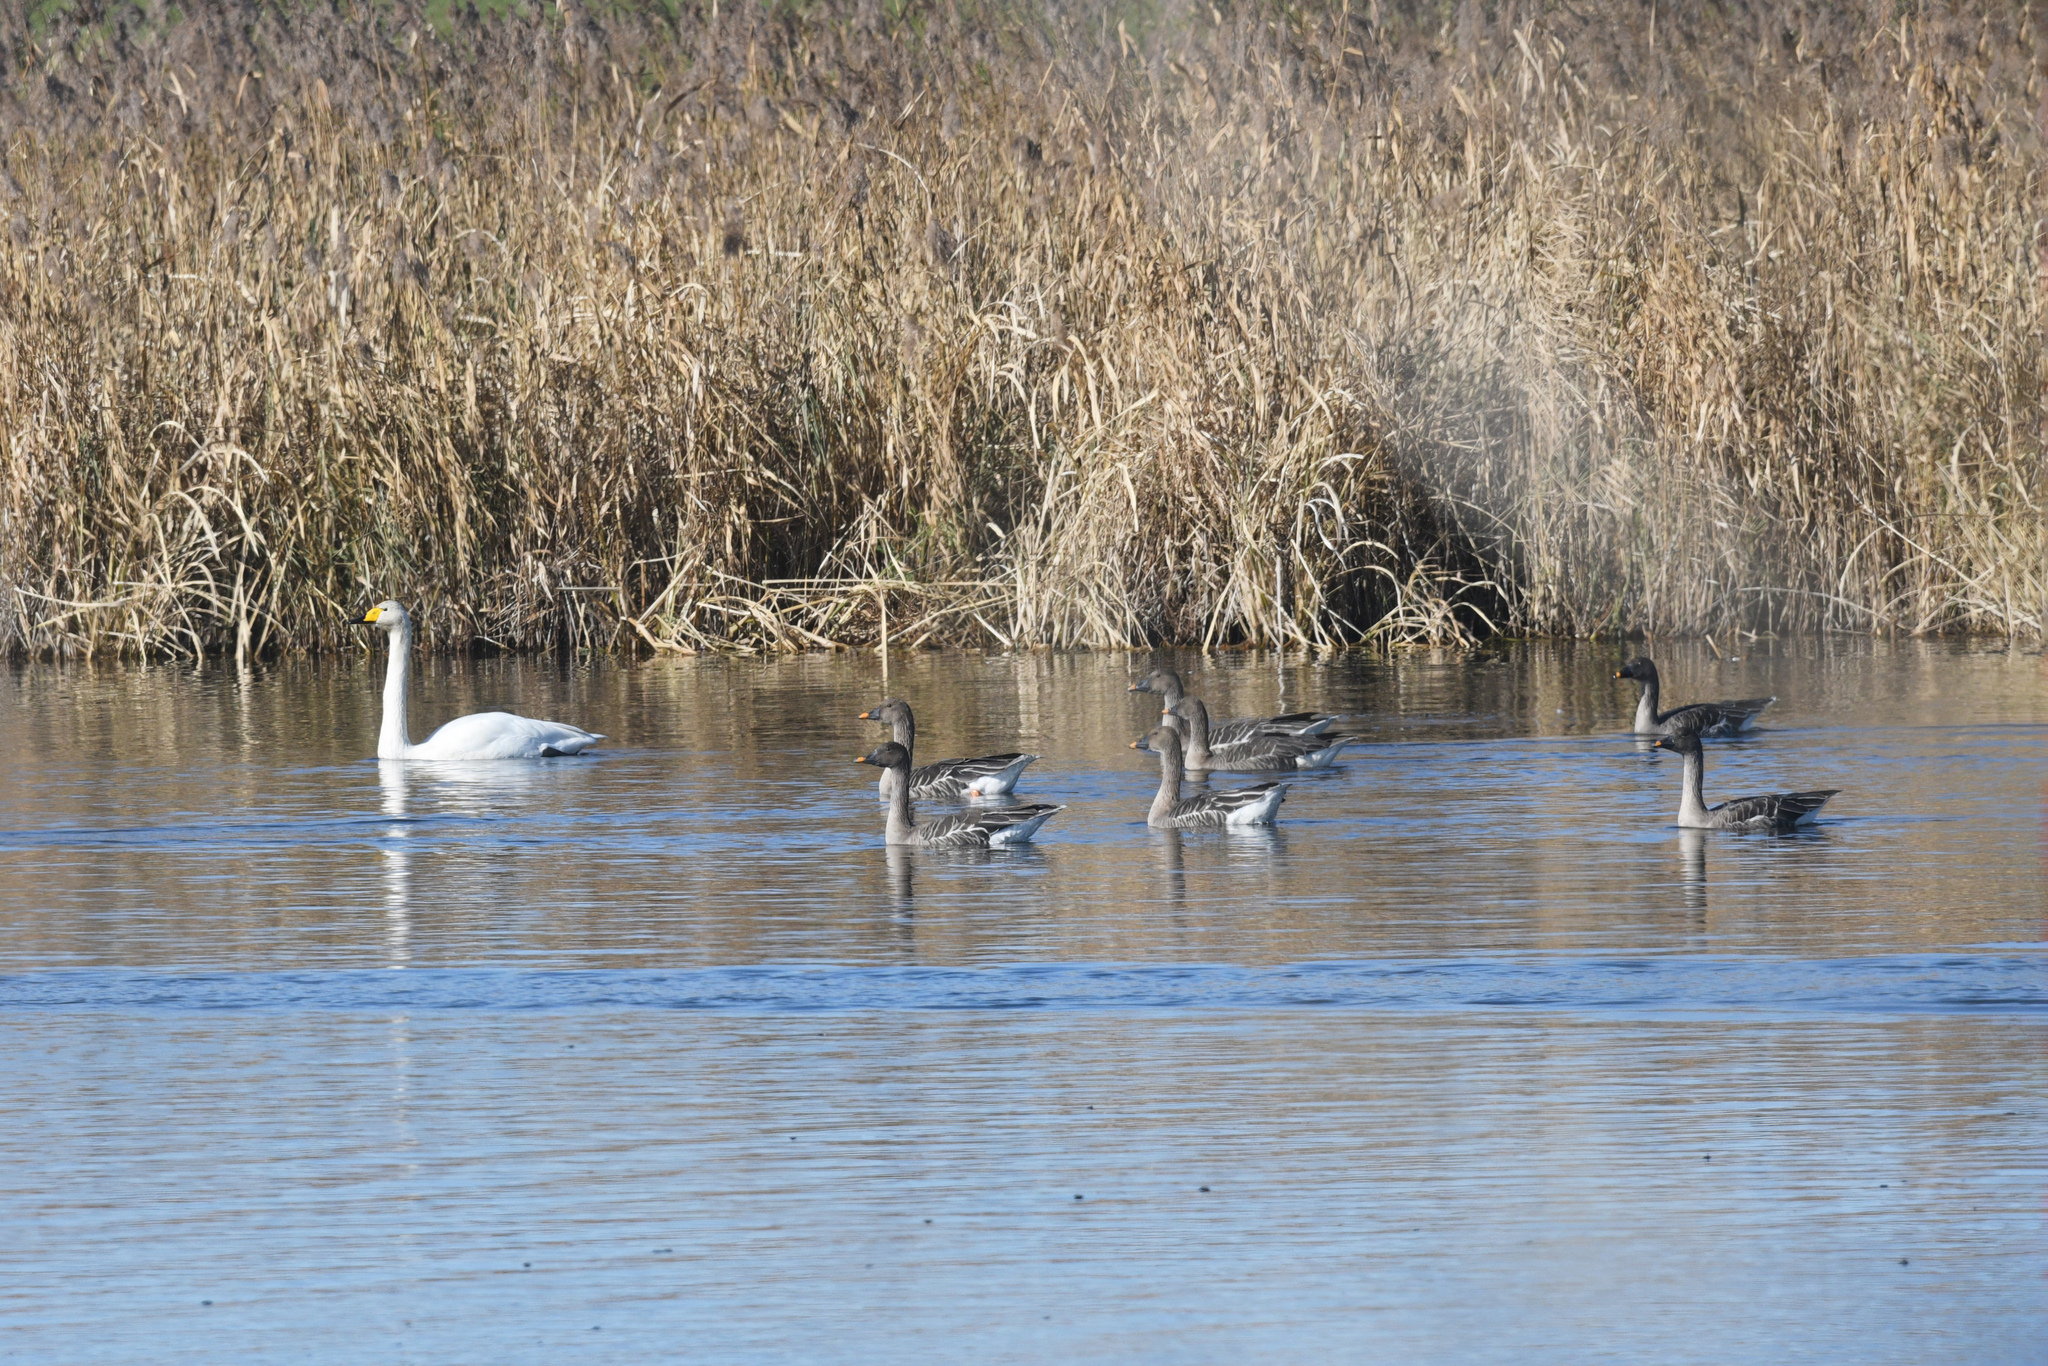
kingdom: Animalia
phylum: Chordata
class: Aves
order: Anseriformes
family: Anatidae
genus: Anser
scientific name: Anser fabalis
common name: Bean goose
